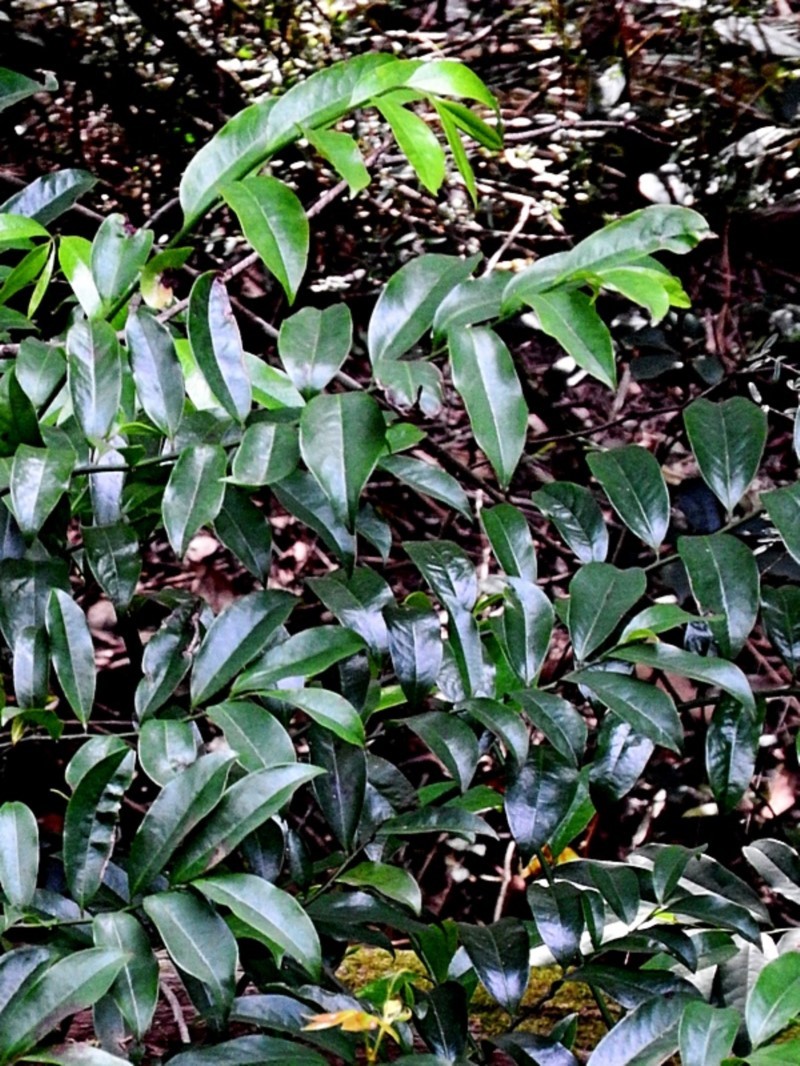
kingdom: Plantae
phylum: Tracheophyta
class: Magnoliopsida
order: Magnoliales
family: Eupomatiaceae
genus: Eupomatia
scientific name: Eupomatia laurina
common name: Bolwarra
